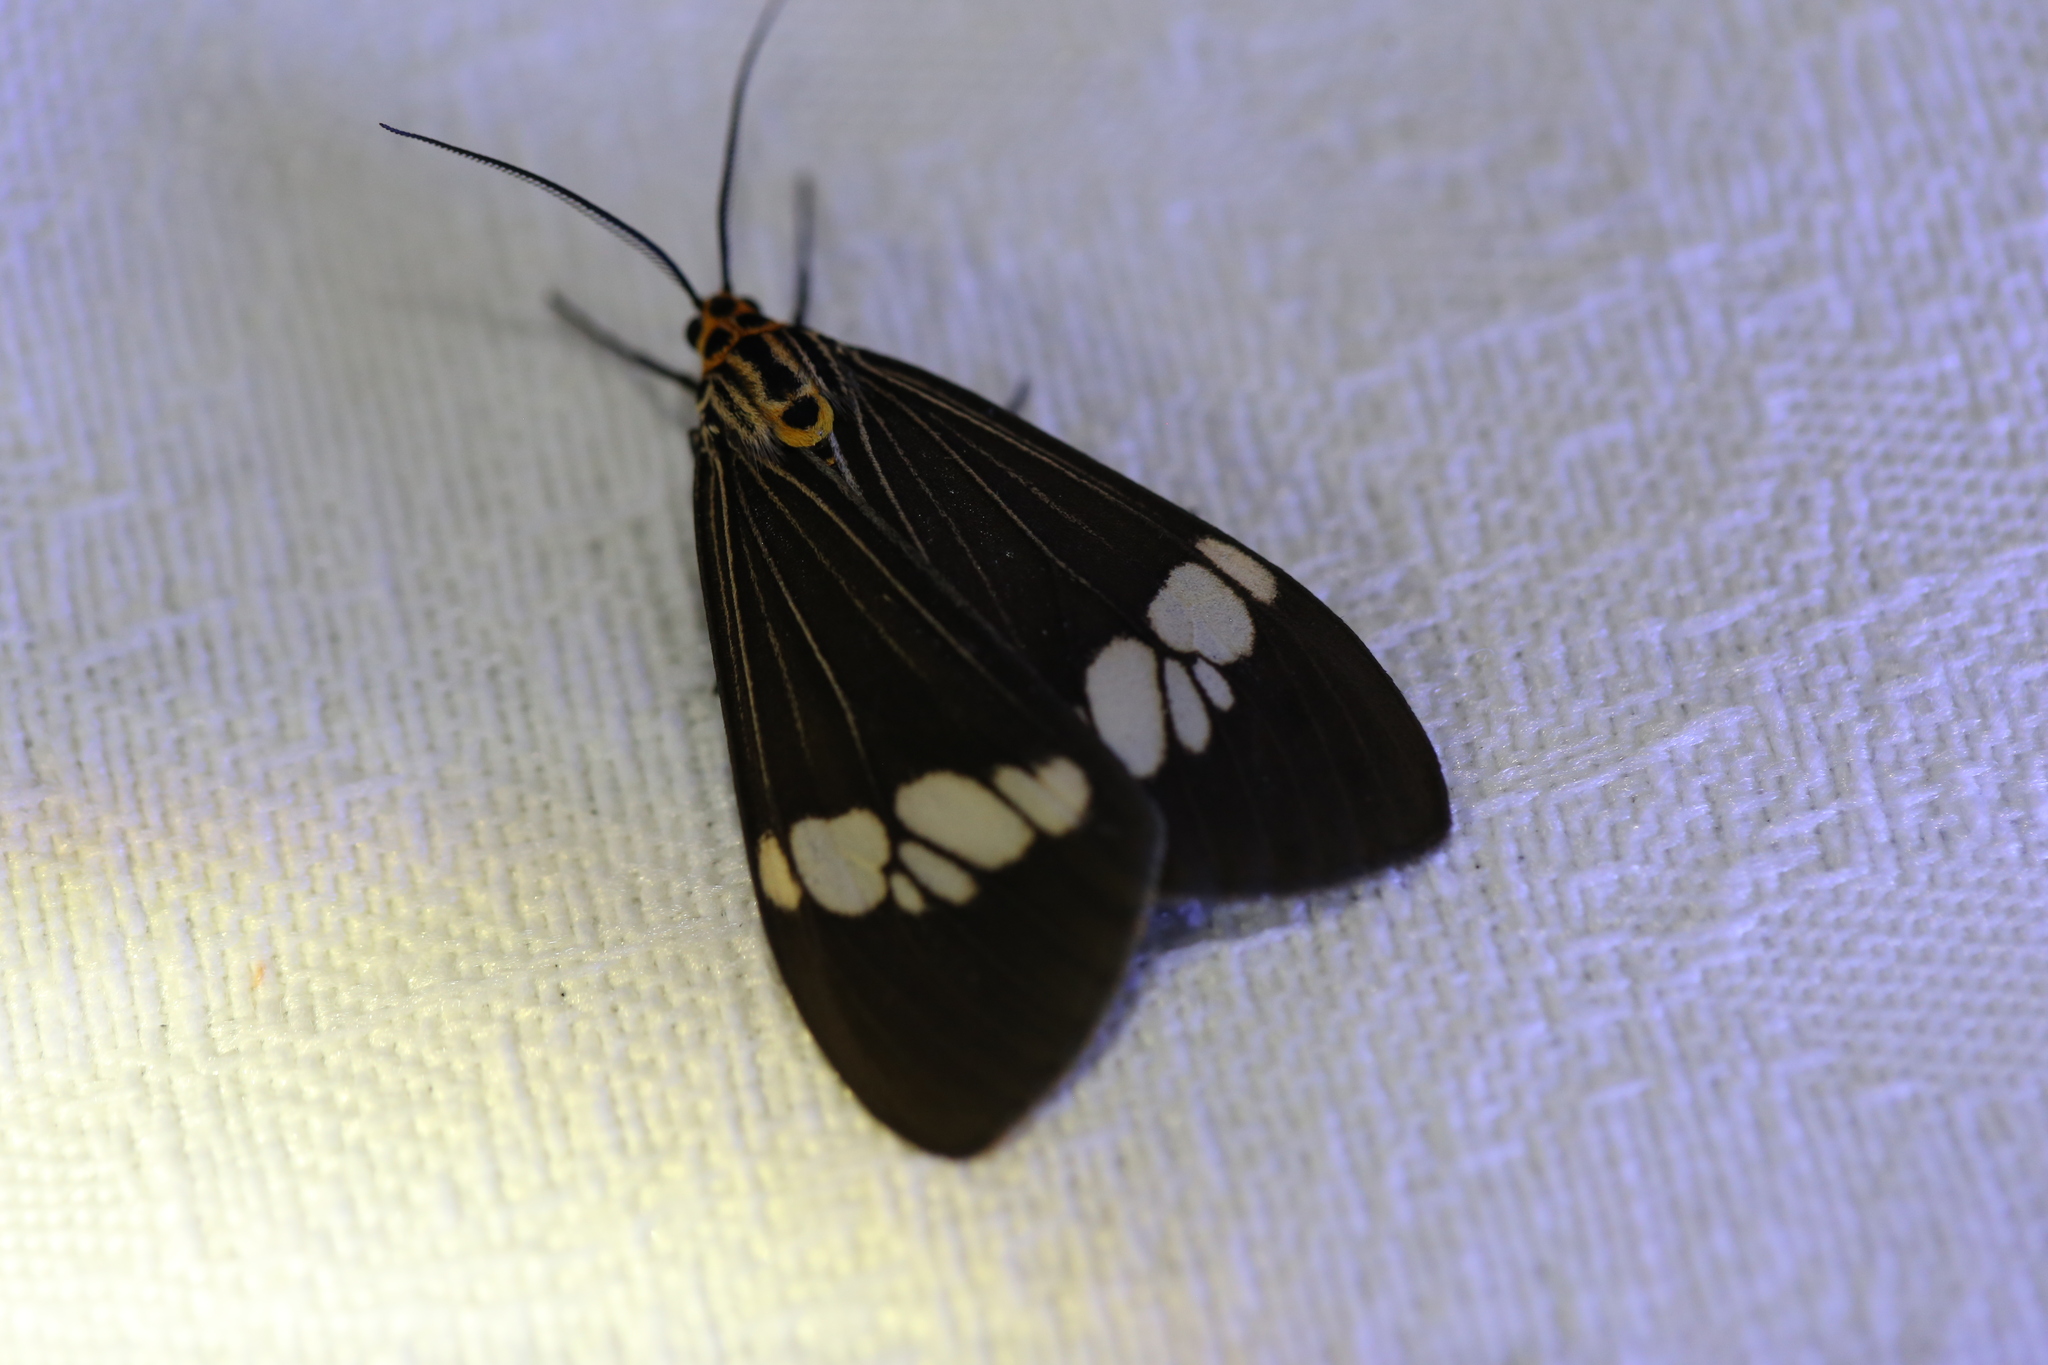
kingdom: Animalia
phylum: Arthropoda
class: Insecta
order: Lepidoptera
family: Erebidae
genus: Nyctemera
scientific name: Nyctemera baulus
